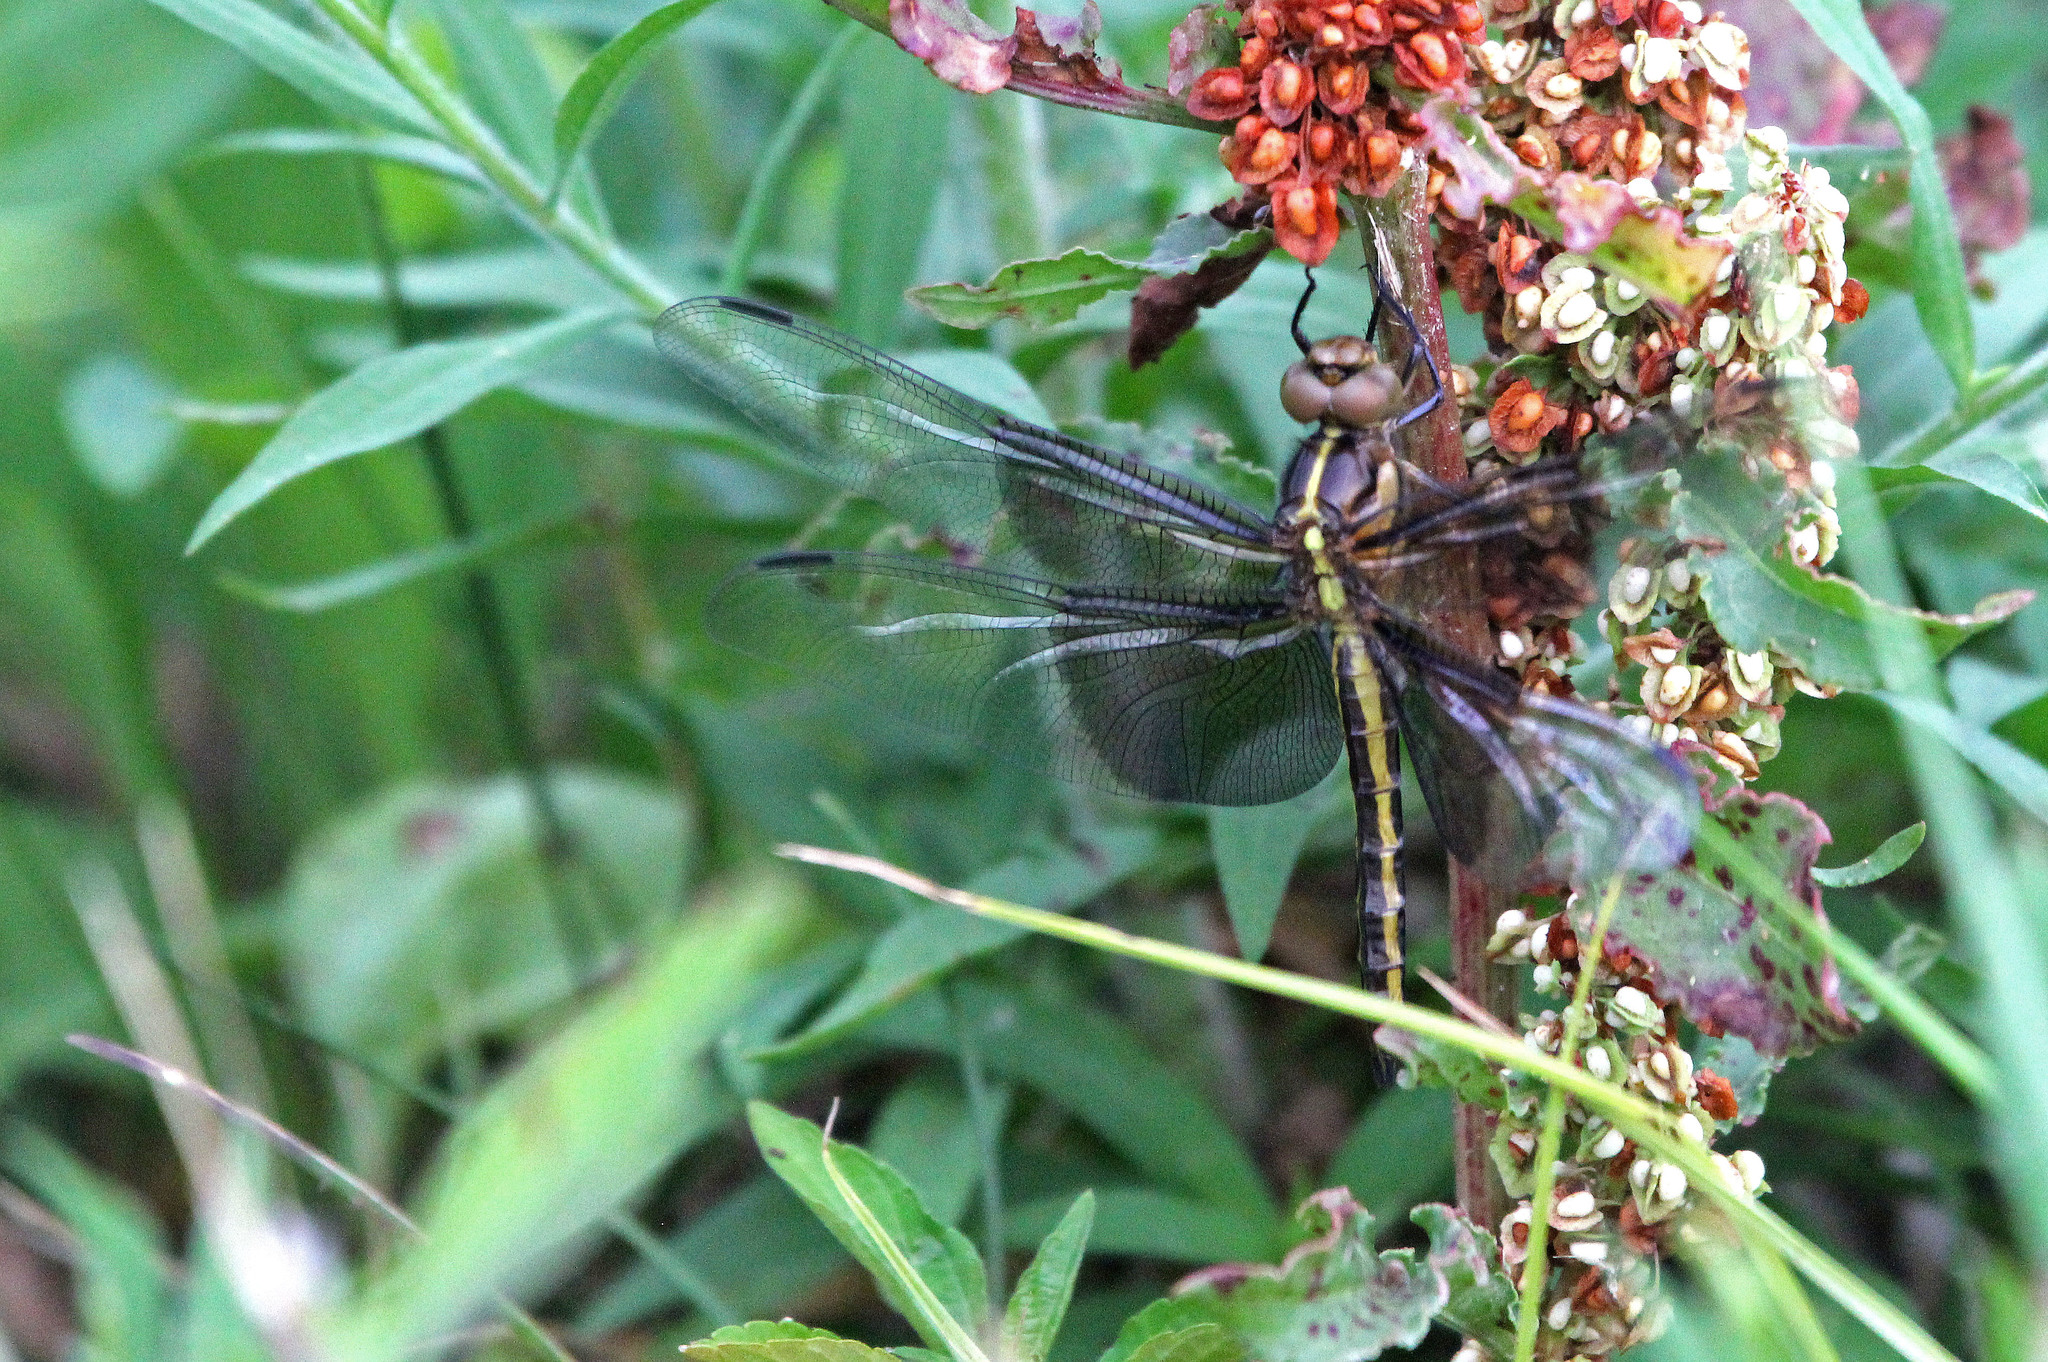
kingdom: Animalia
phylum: Arthropoda
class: Insecta
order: Odonata
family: Libellulidae
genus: Libellula
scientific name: Libellula luctuosa
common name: Widow skimmer
